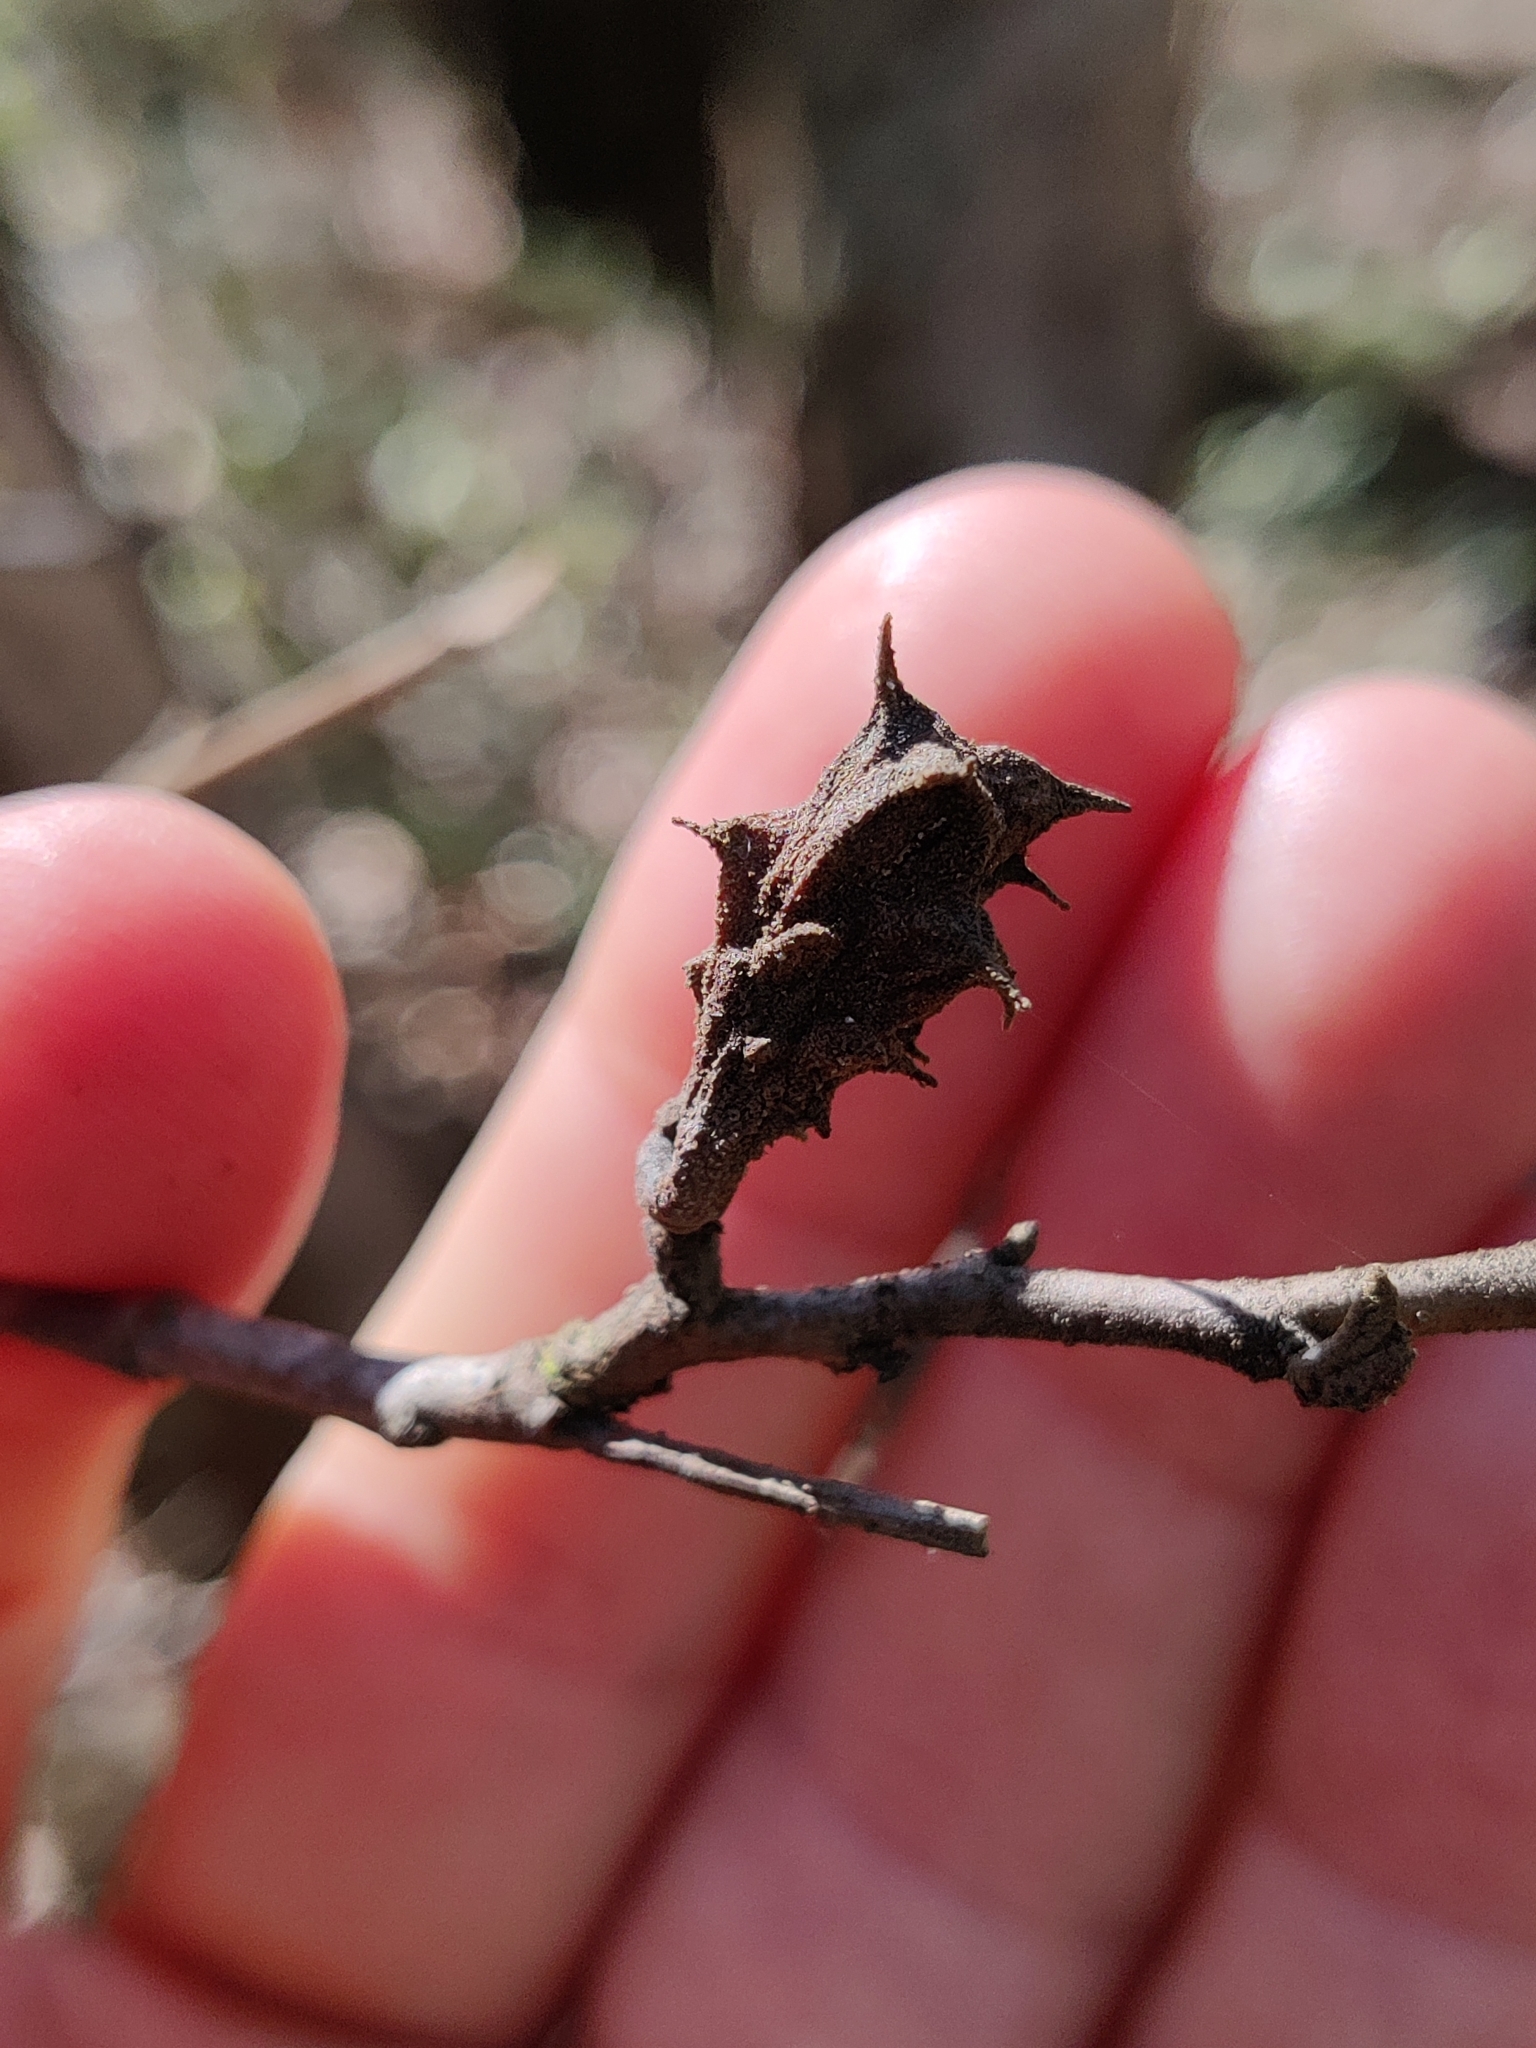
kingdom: Animalia
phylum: Arthropoda
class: Insecta
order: Hemiptera
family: Aphididae
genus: Hamamelistes
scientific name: Hamamelistes spinosus
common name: Witch hazel gall aphid
